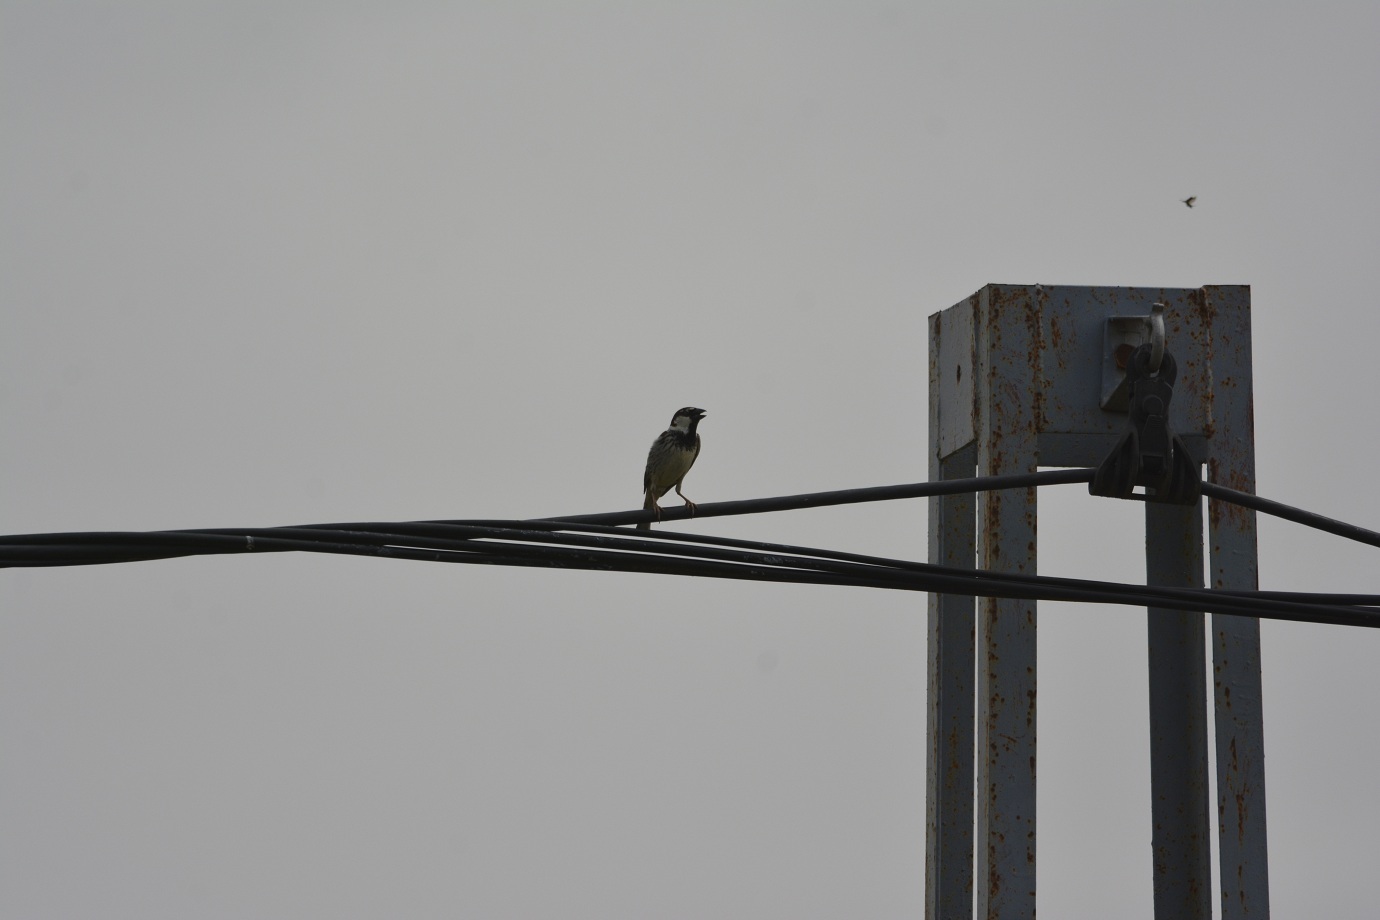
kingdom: Animalia
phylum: Chordata
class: Aves
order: Passeriformes
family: Passeridae
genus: Passer
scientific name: Passer hispaniolensis
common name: Spanish sparrow
